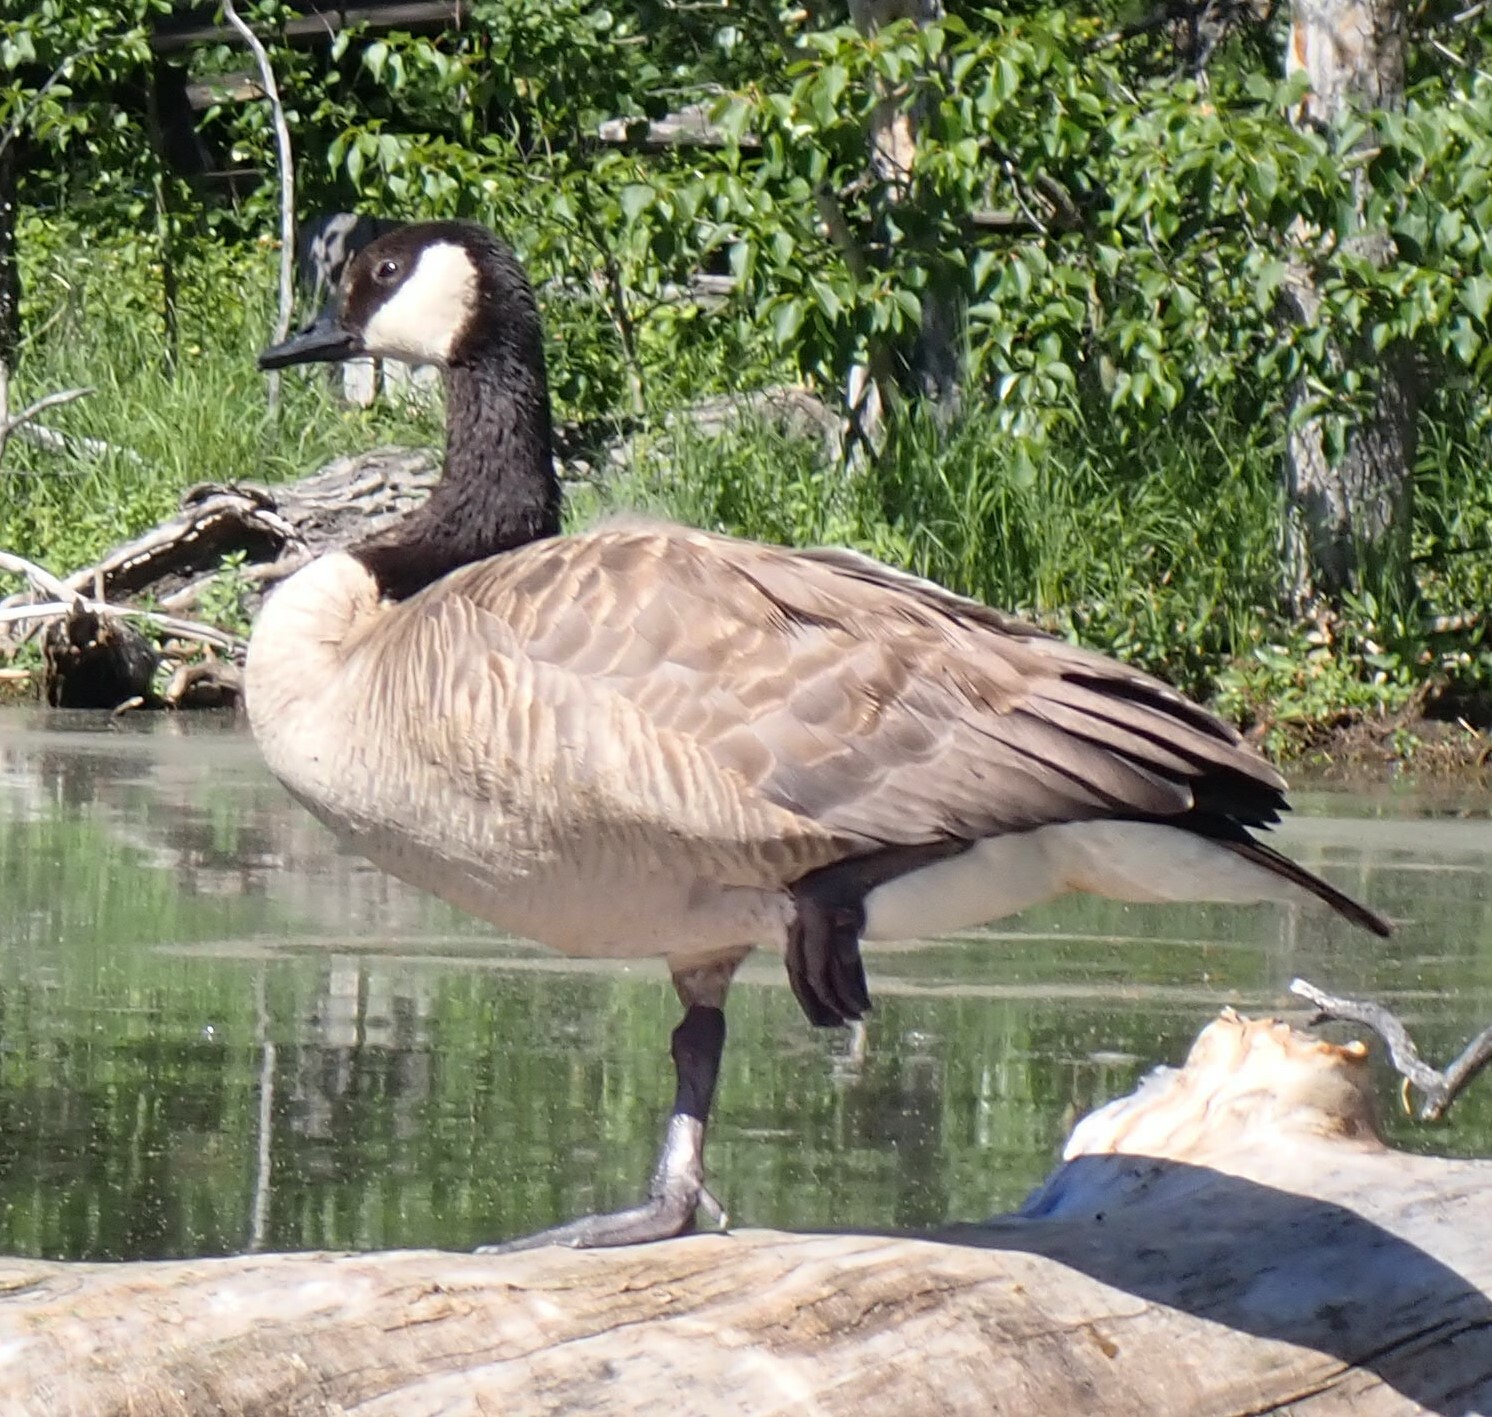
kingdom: Animalia
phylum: Chordata
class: Aves
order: Anseriformes
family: Anatidae
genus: Branta
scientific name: Branta canadensis
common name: Canada goose
